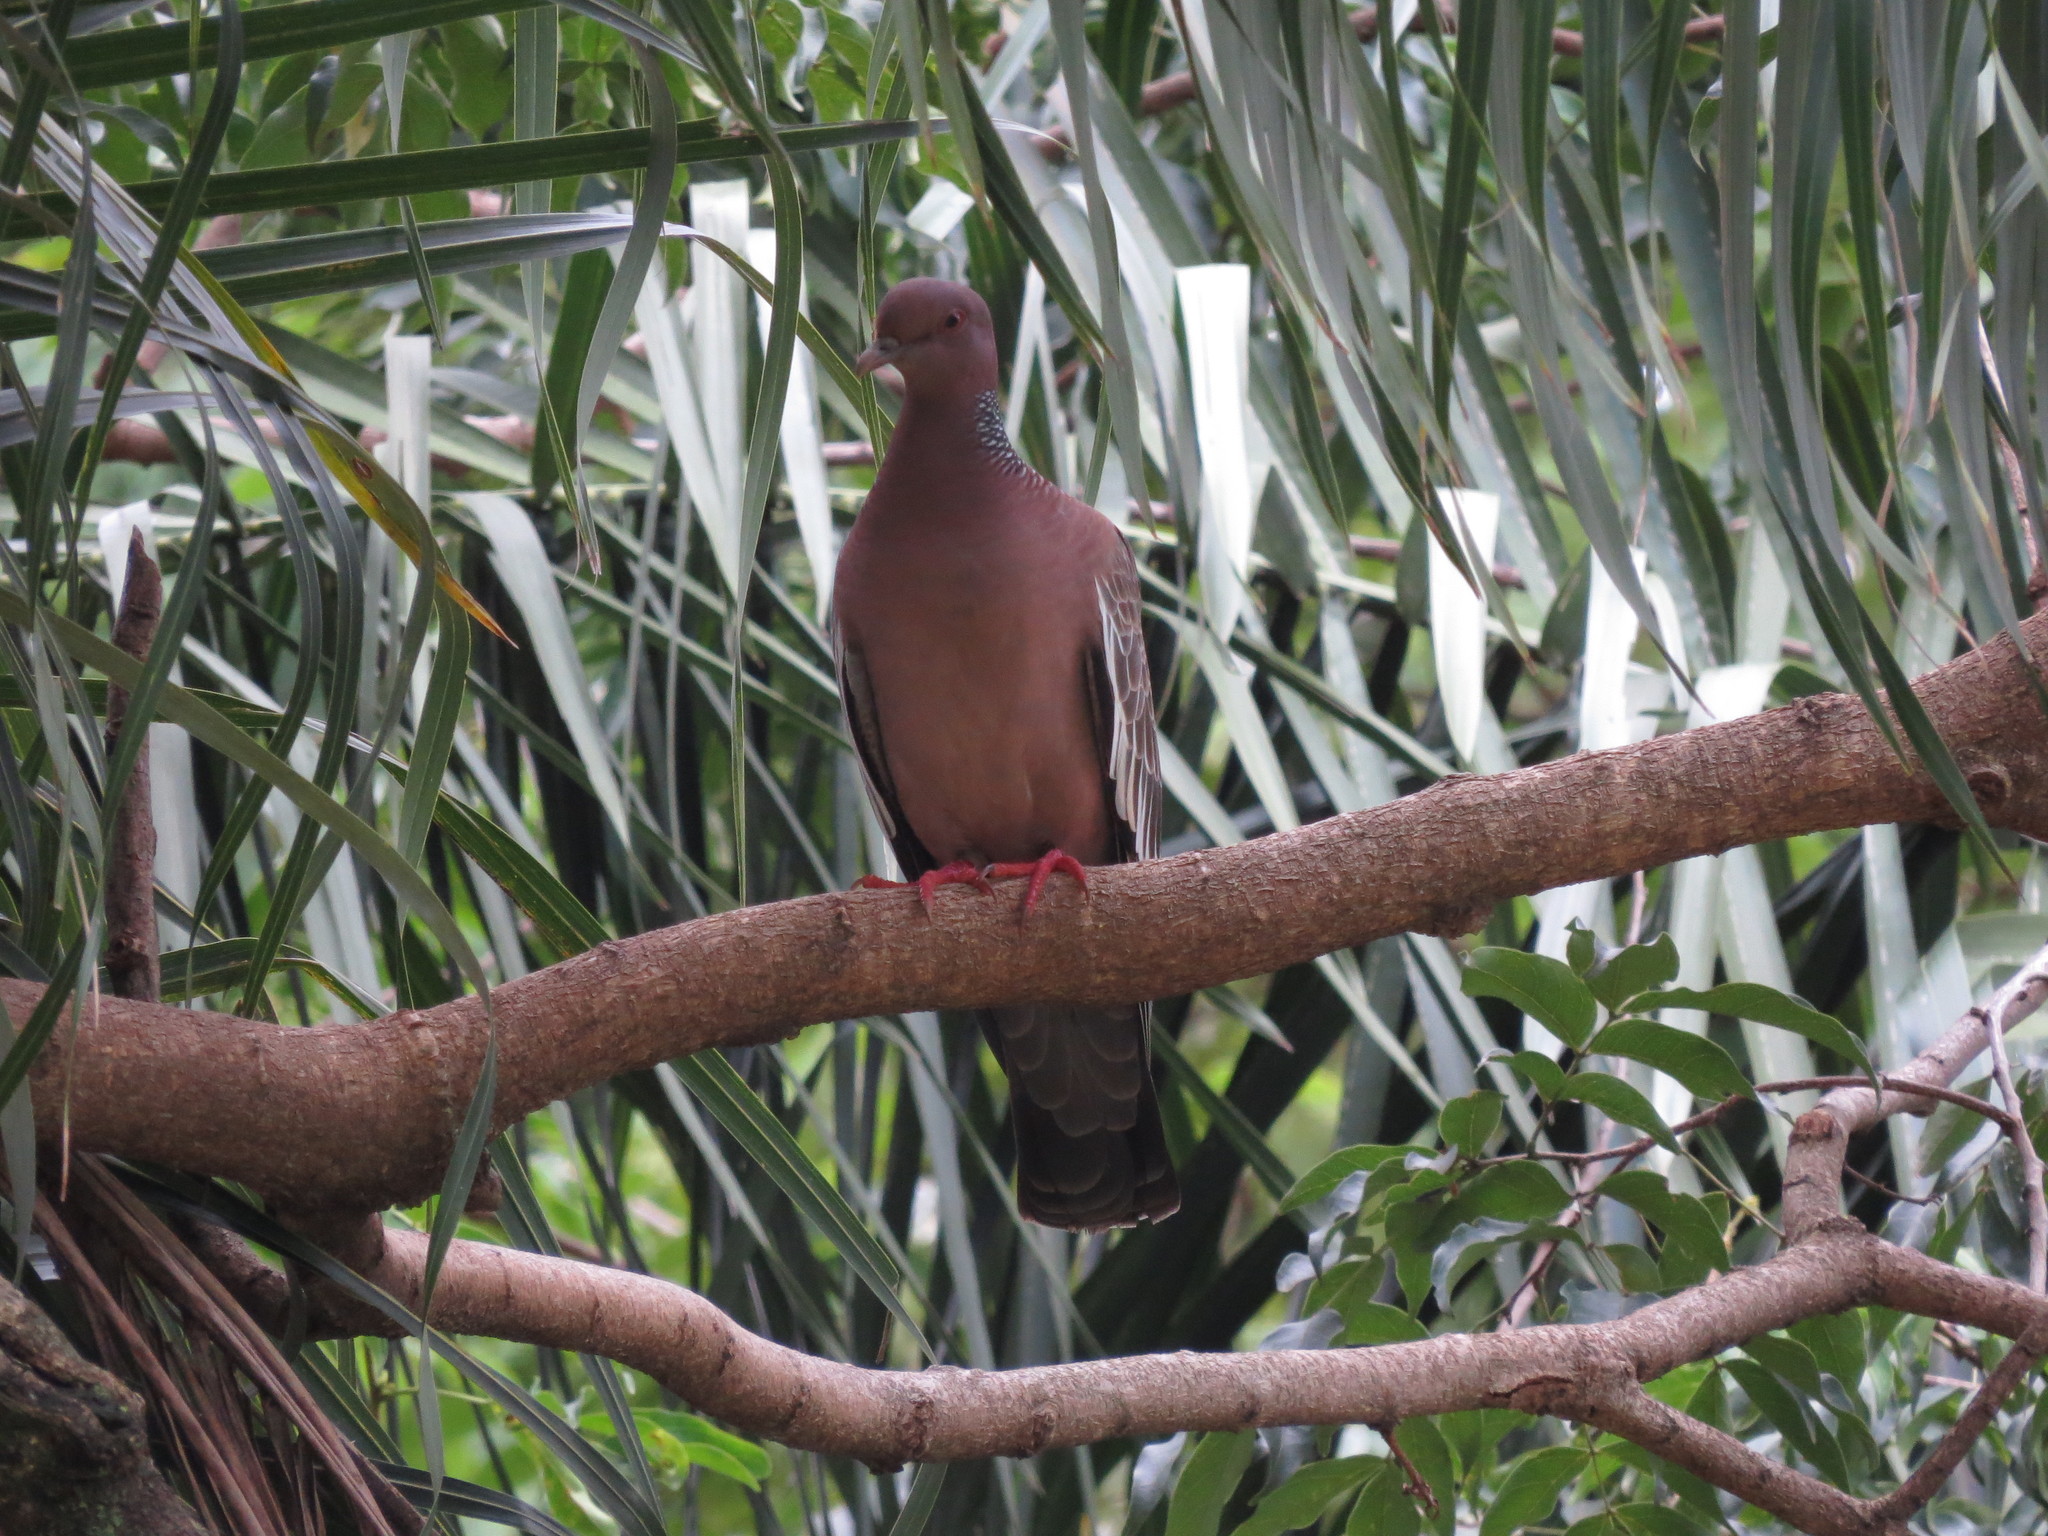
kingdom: Animalia
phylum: Chordata
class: Aves
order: Columbiformes
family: Columbidae
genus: Patagioenas
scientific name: Patagioenas picazuro
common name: Picazuro pigeon
